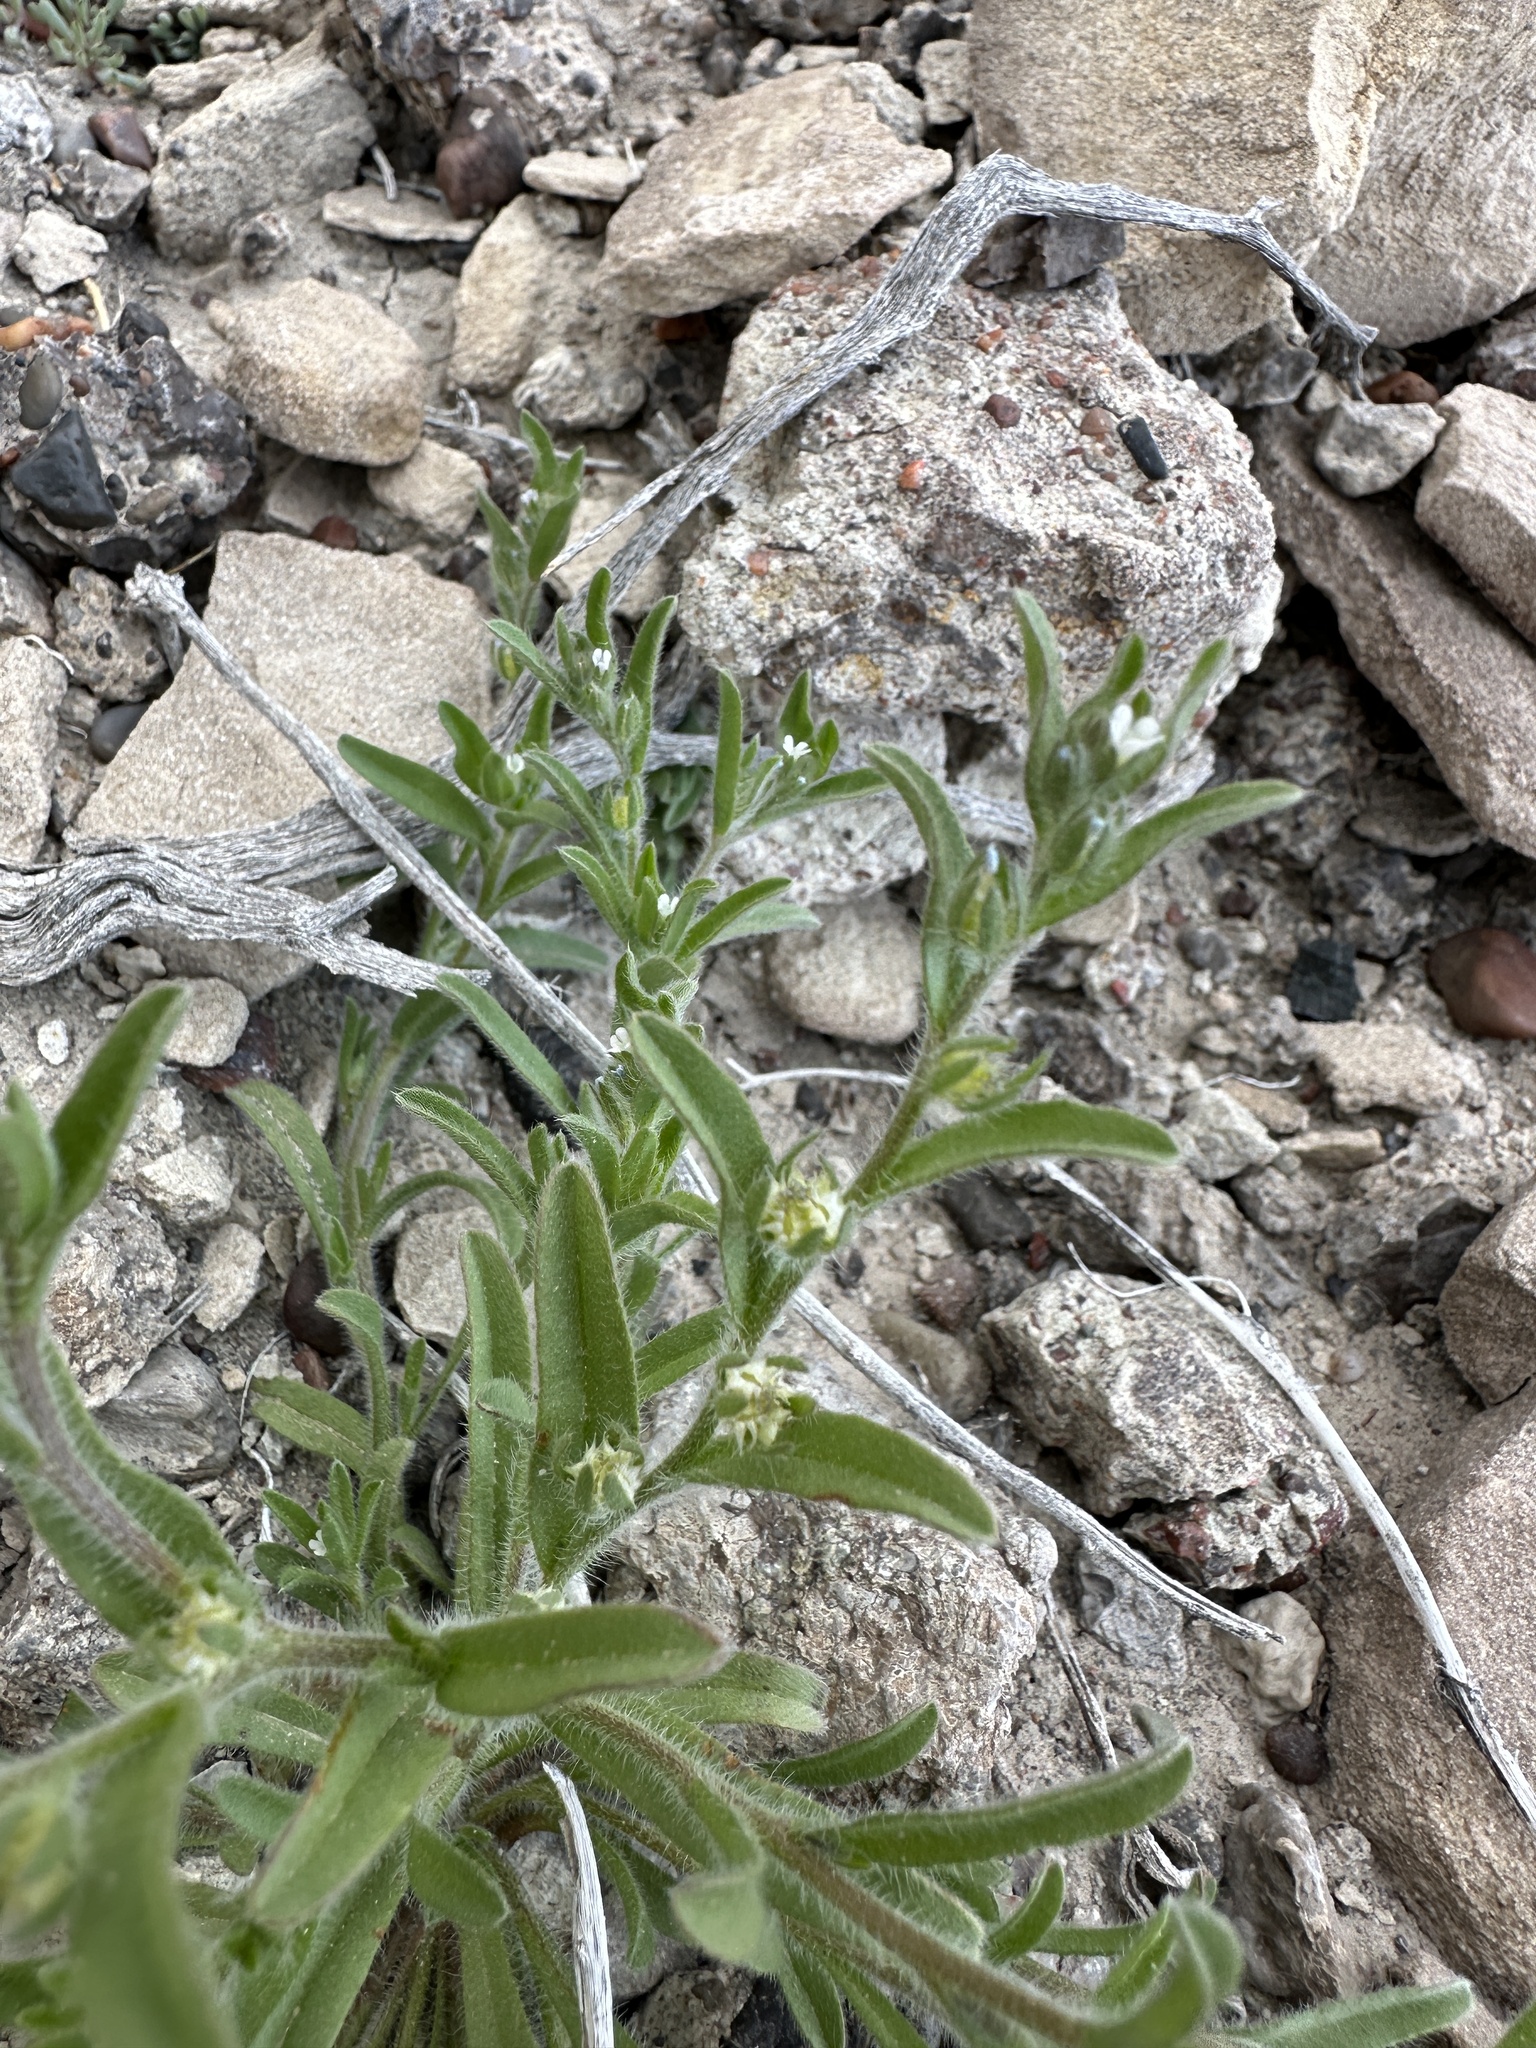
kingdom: Plantae
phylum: Tracheophyta
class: Magnoliopsida
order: Boraginales
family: Boraginaceae
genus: Lappula
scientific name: Lappula occidentalis
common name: Western stickseed
